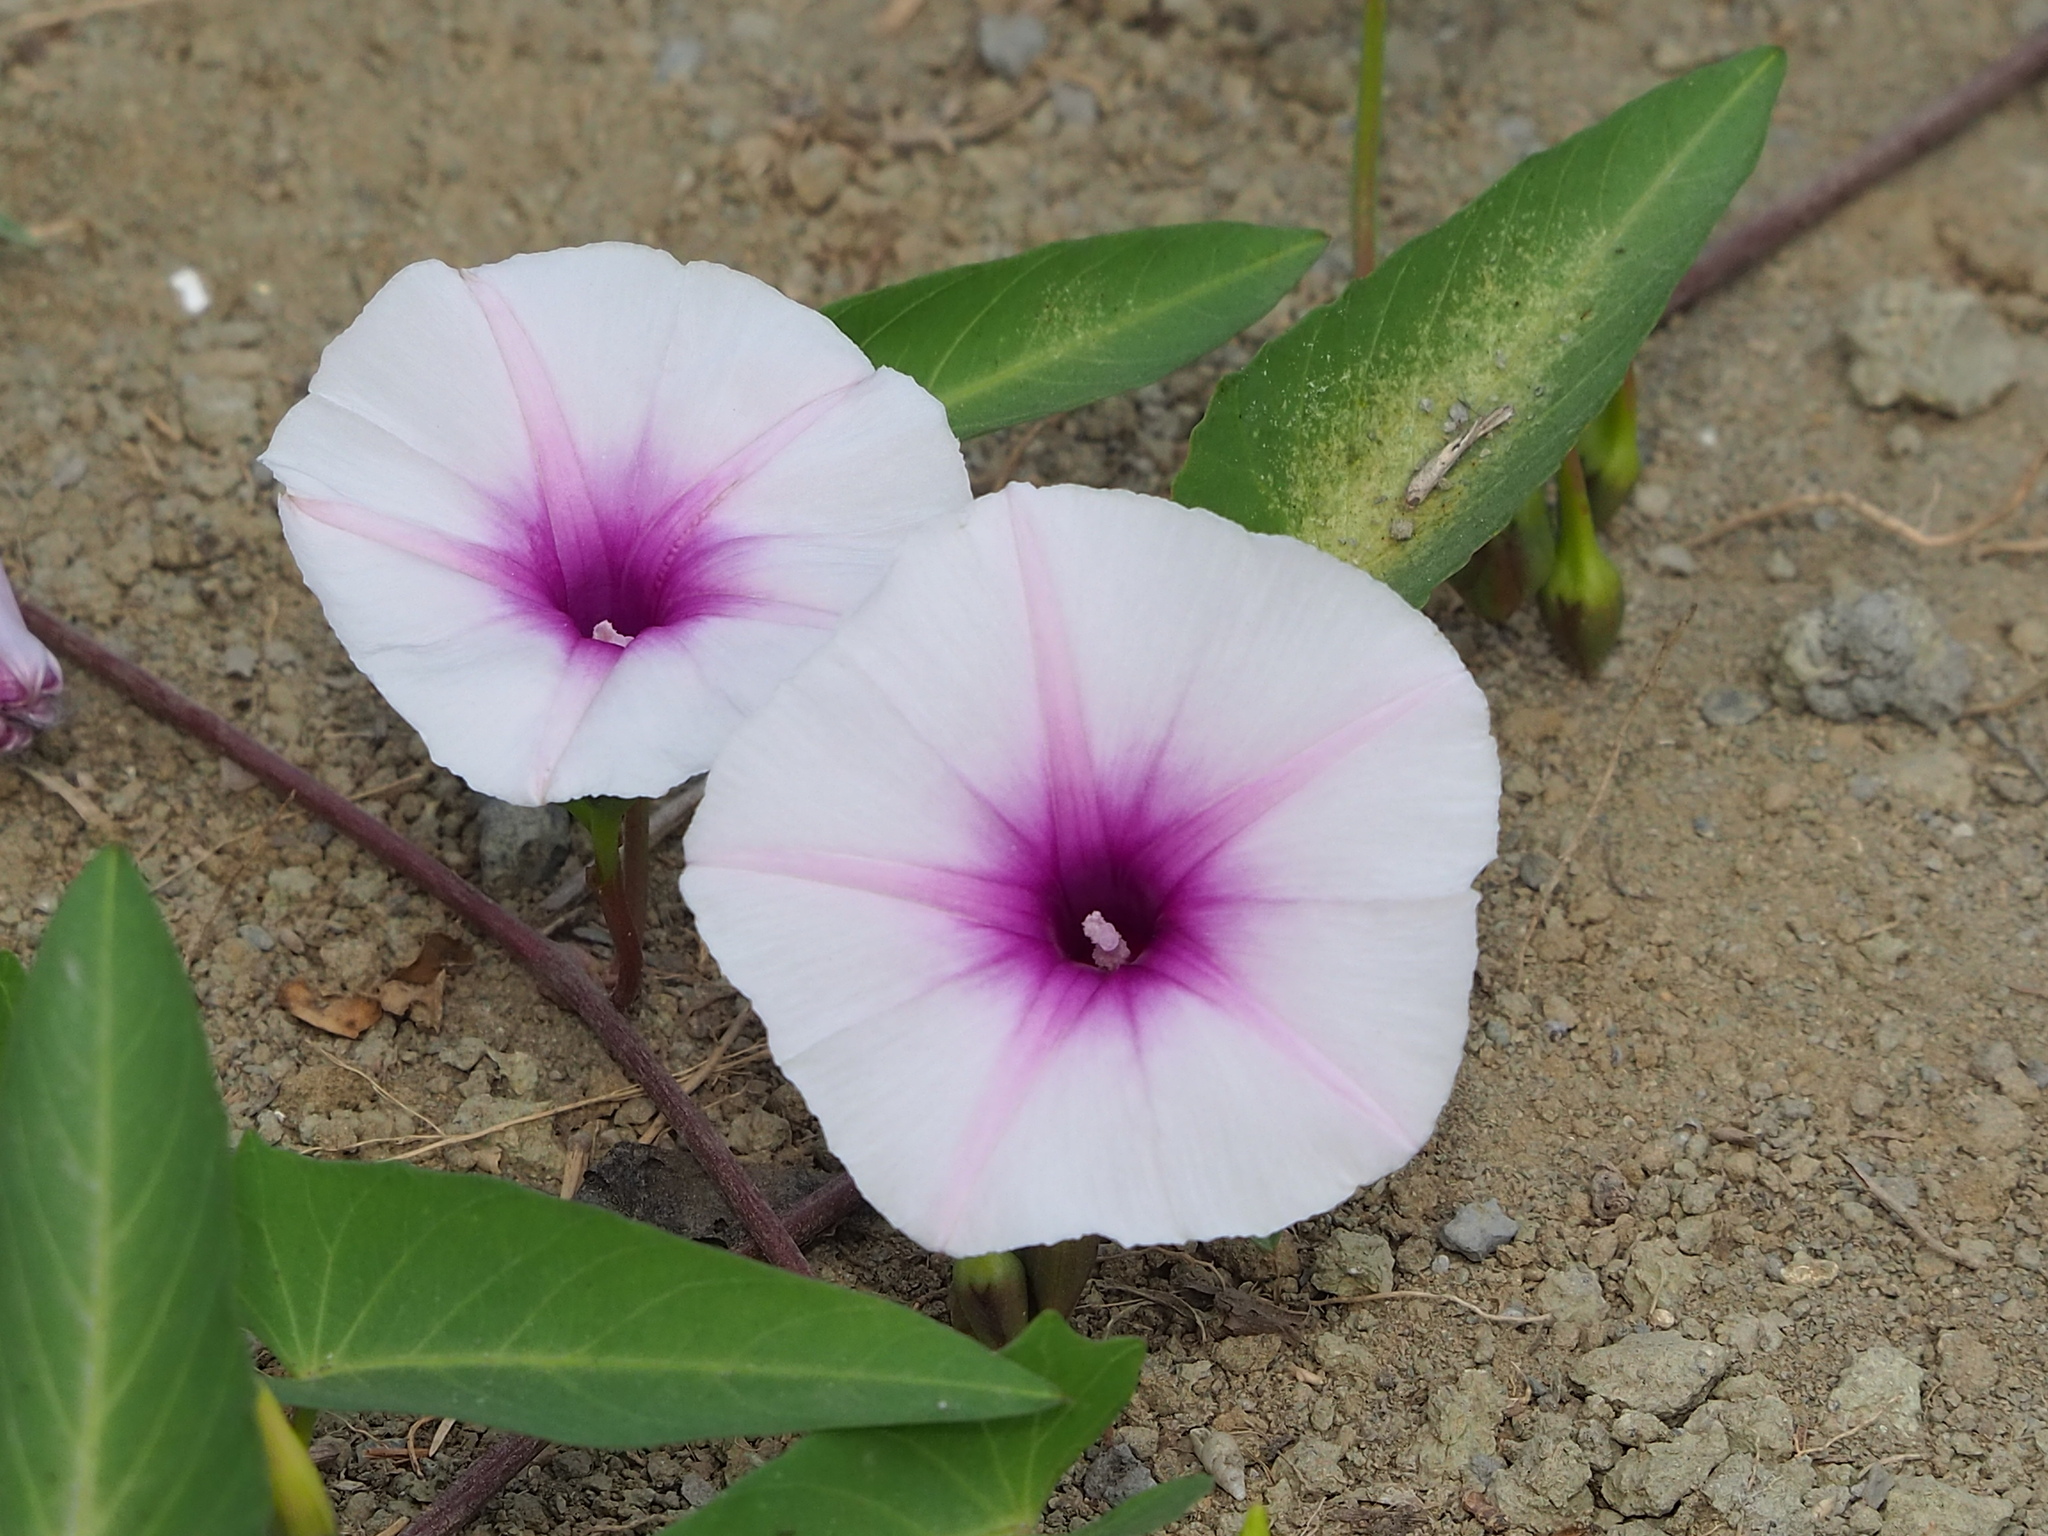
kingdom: Plantae
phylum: Tracheophyta
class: Magnoliopsida
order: Solanales
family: Convolvulaceae
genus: Ipomoea
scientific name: Ipomoea aquatica
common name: Swamp morning-glory
